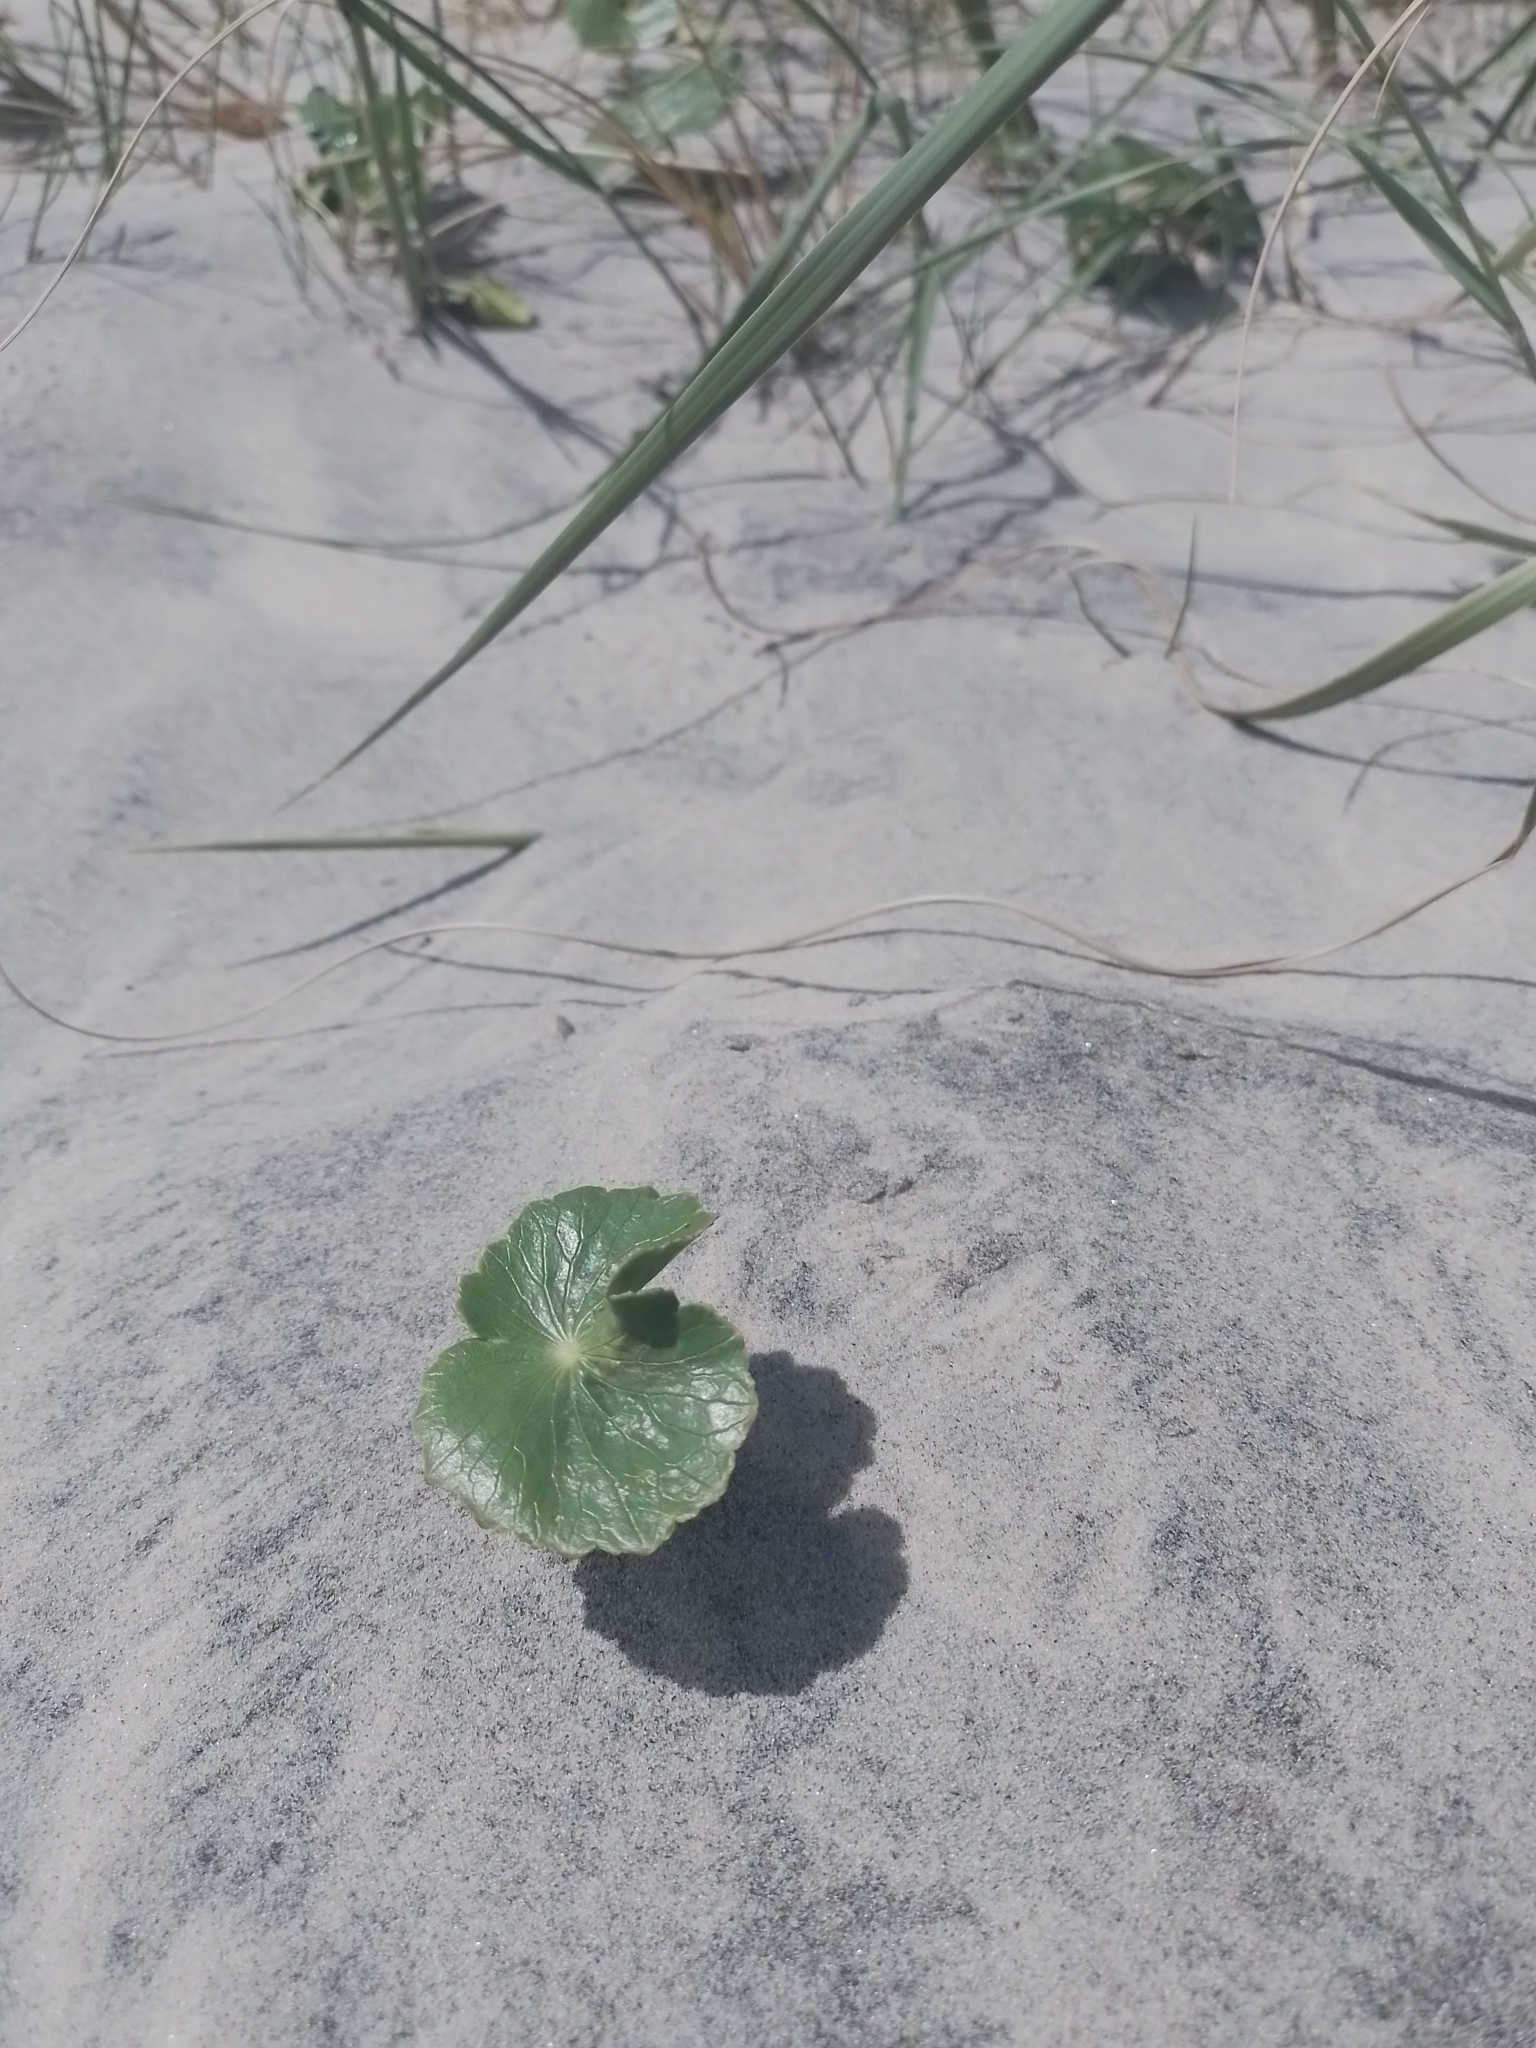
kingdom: Plantae
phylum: Tracheophyta
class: Magnoliopsida
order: Apiales
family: Araliaceae
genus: Hydrocotyle
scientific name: Hydrocotyle bonariensis
